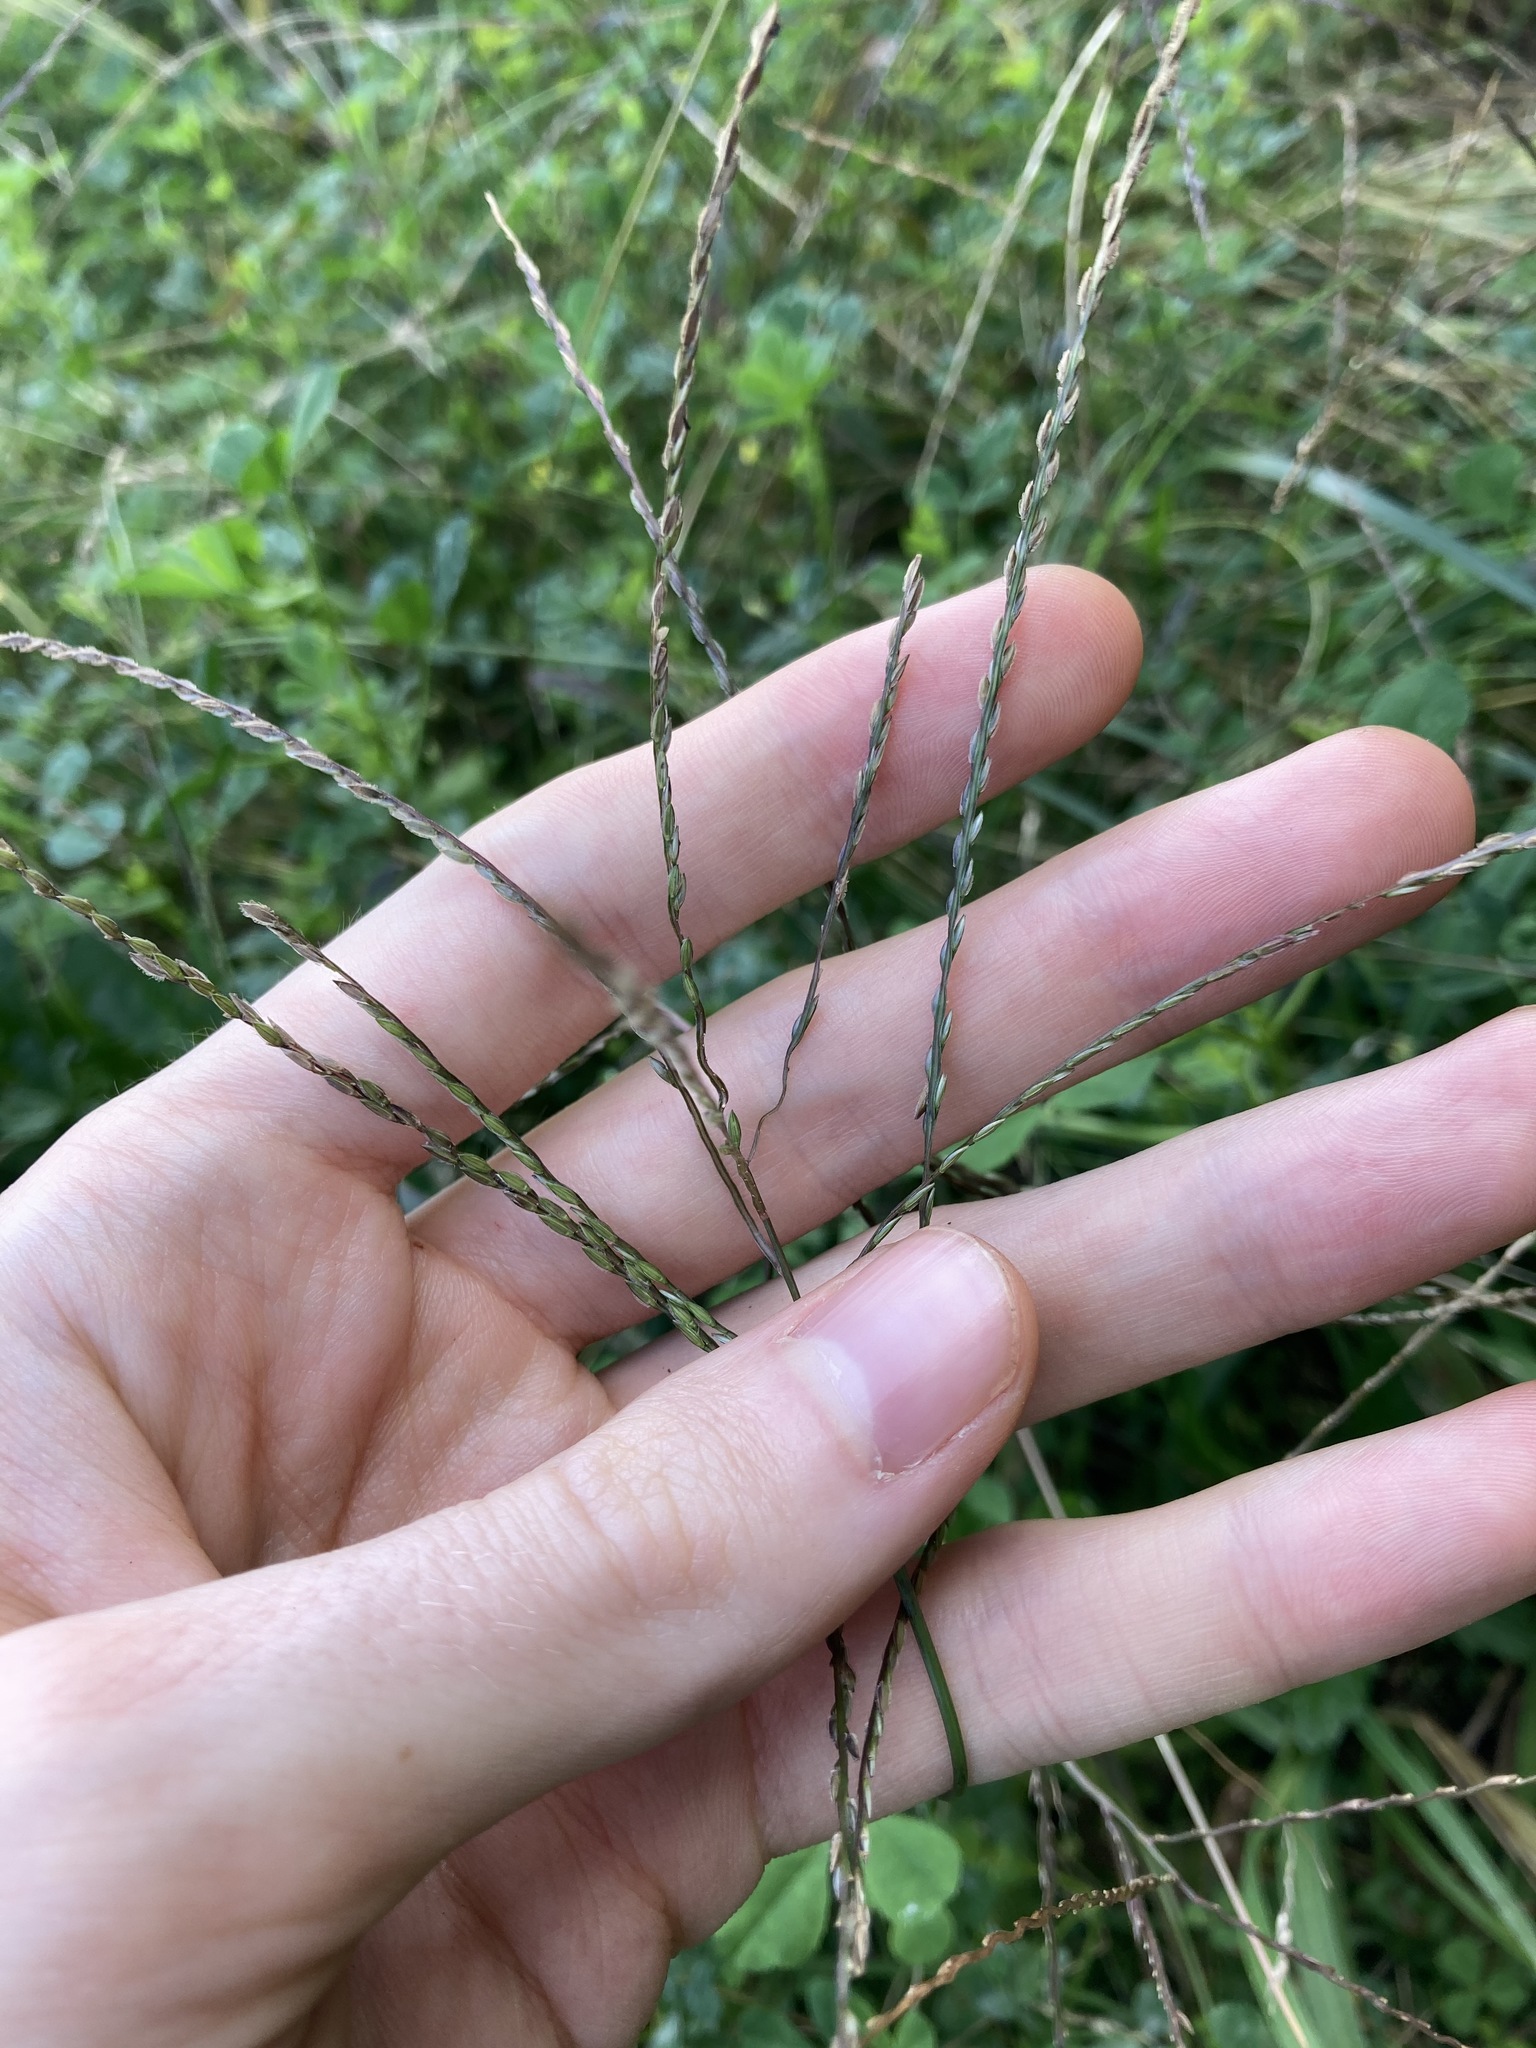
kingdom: Plantae
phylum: Tracheophyta
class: Liliopsida
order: Poales
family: Poaceae
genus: Digitaria
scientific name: Digitaria sanguinalis
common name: Hairy crabgrass
